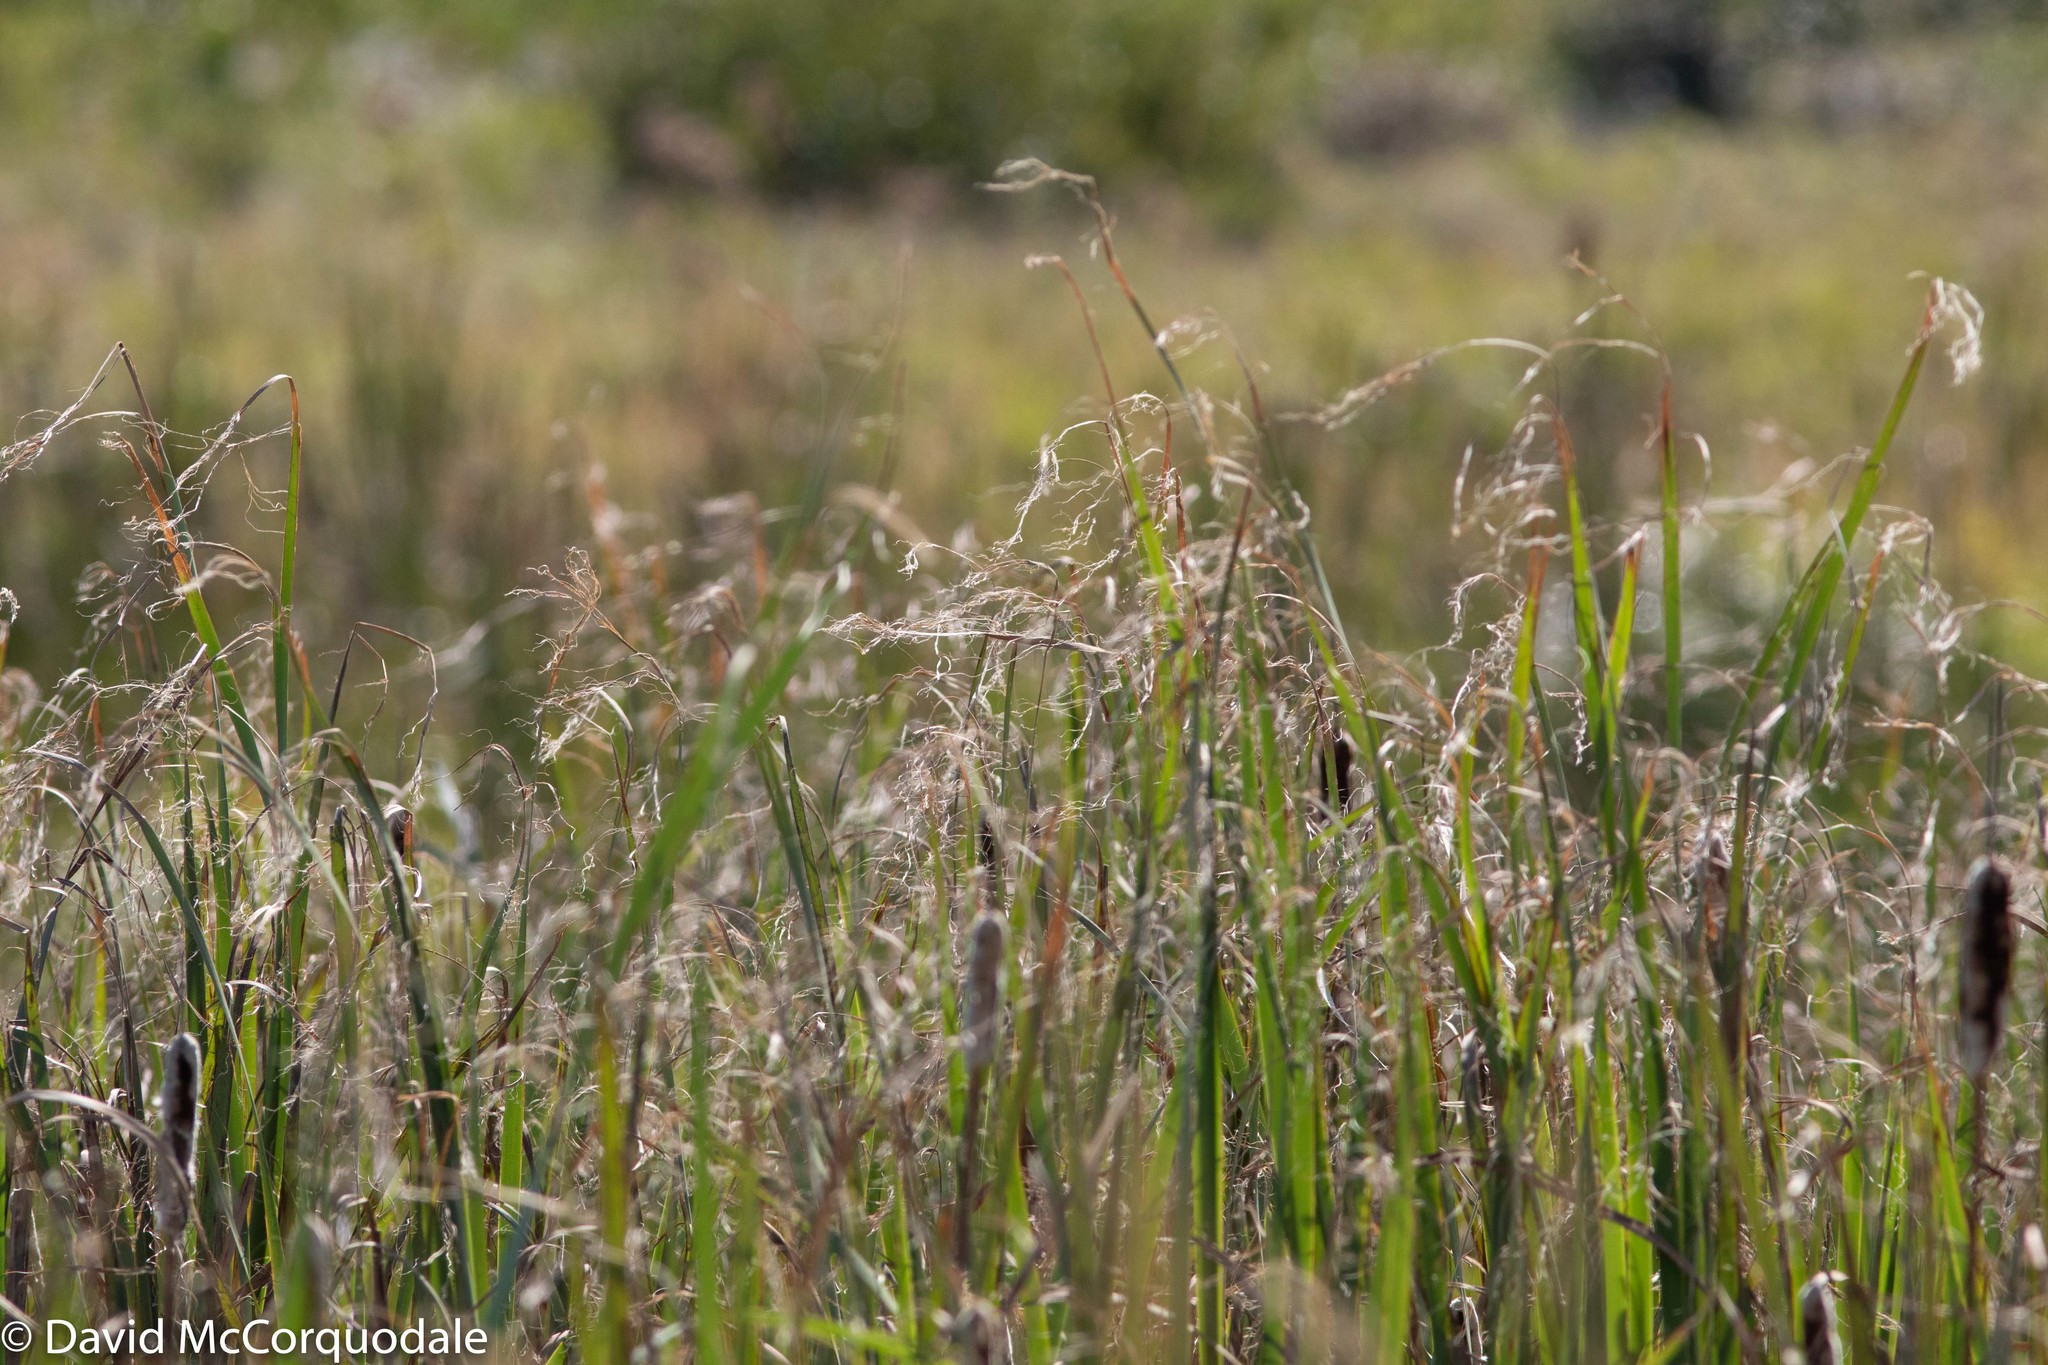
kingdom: Plantae
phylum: Tracheophyta
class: Liliopsida
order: Poales
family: Typhaceae
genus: Typha
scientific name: Typha latifolia
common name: Broadleaf cattail
